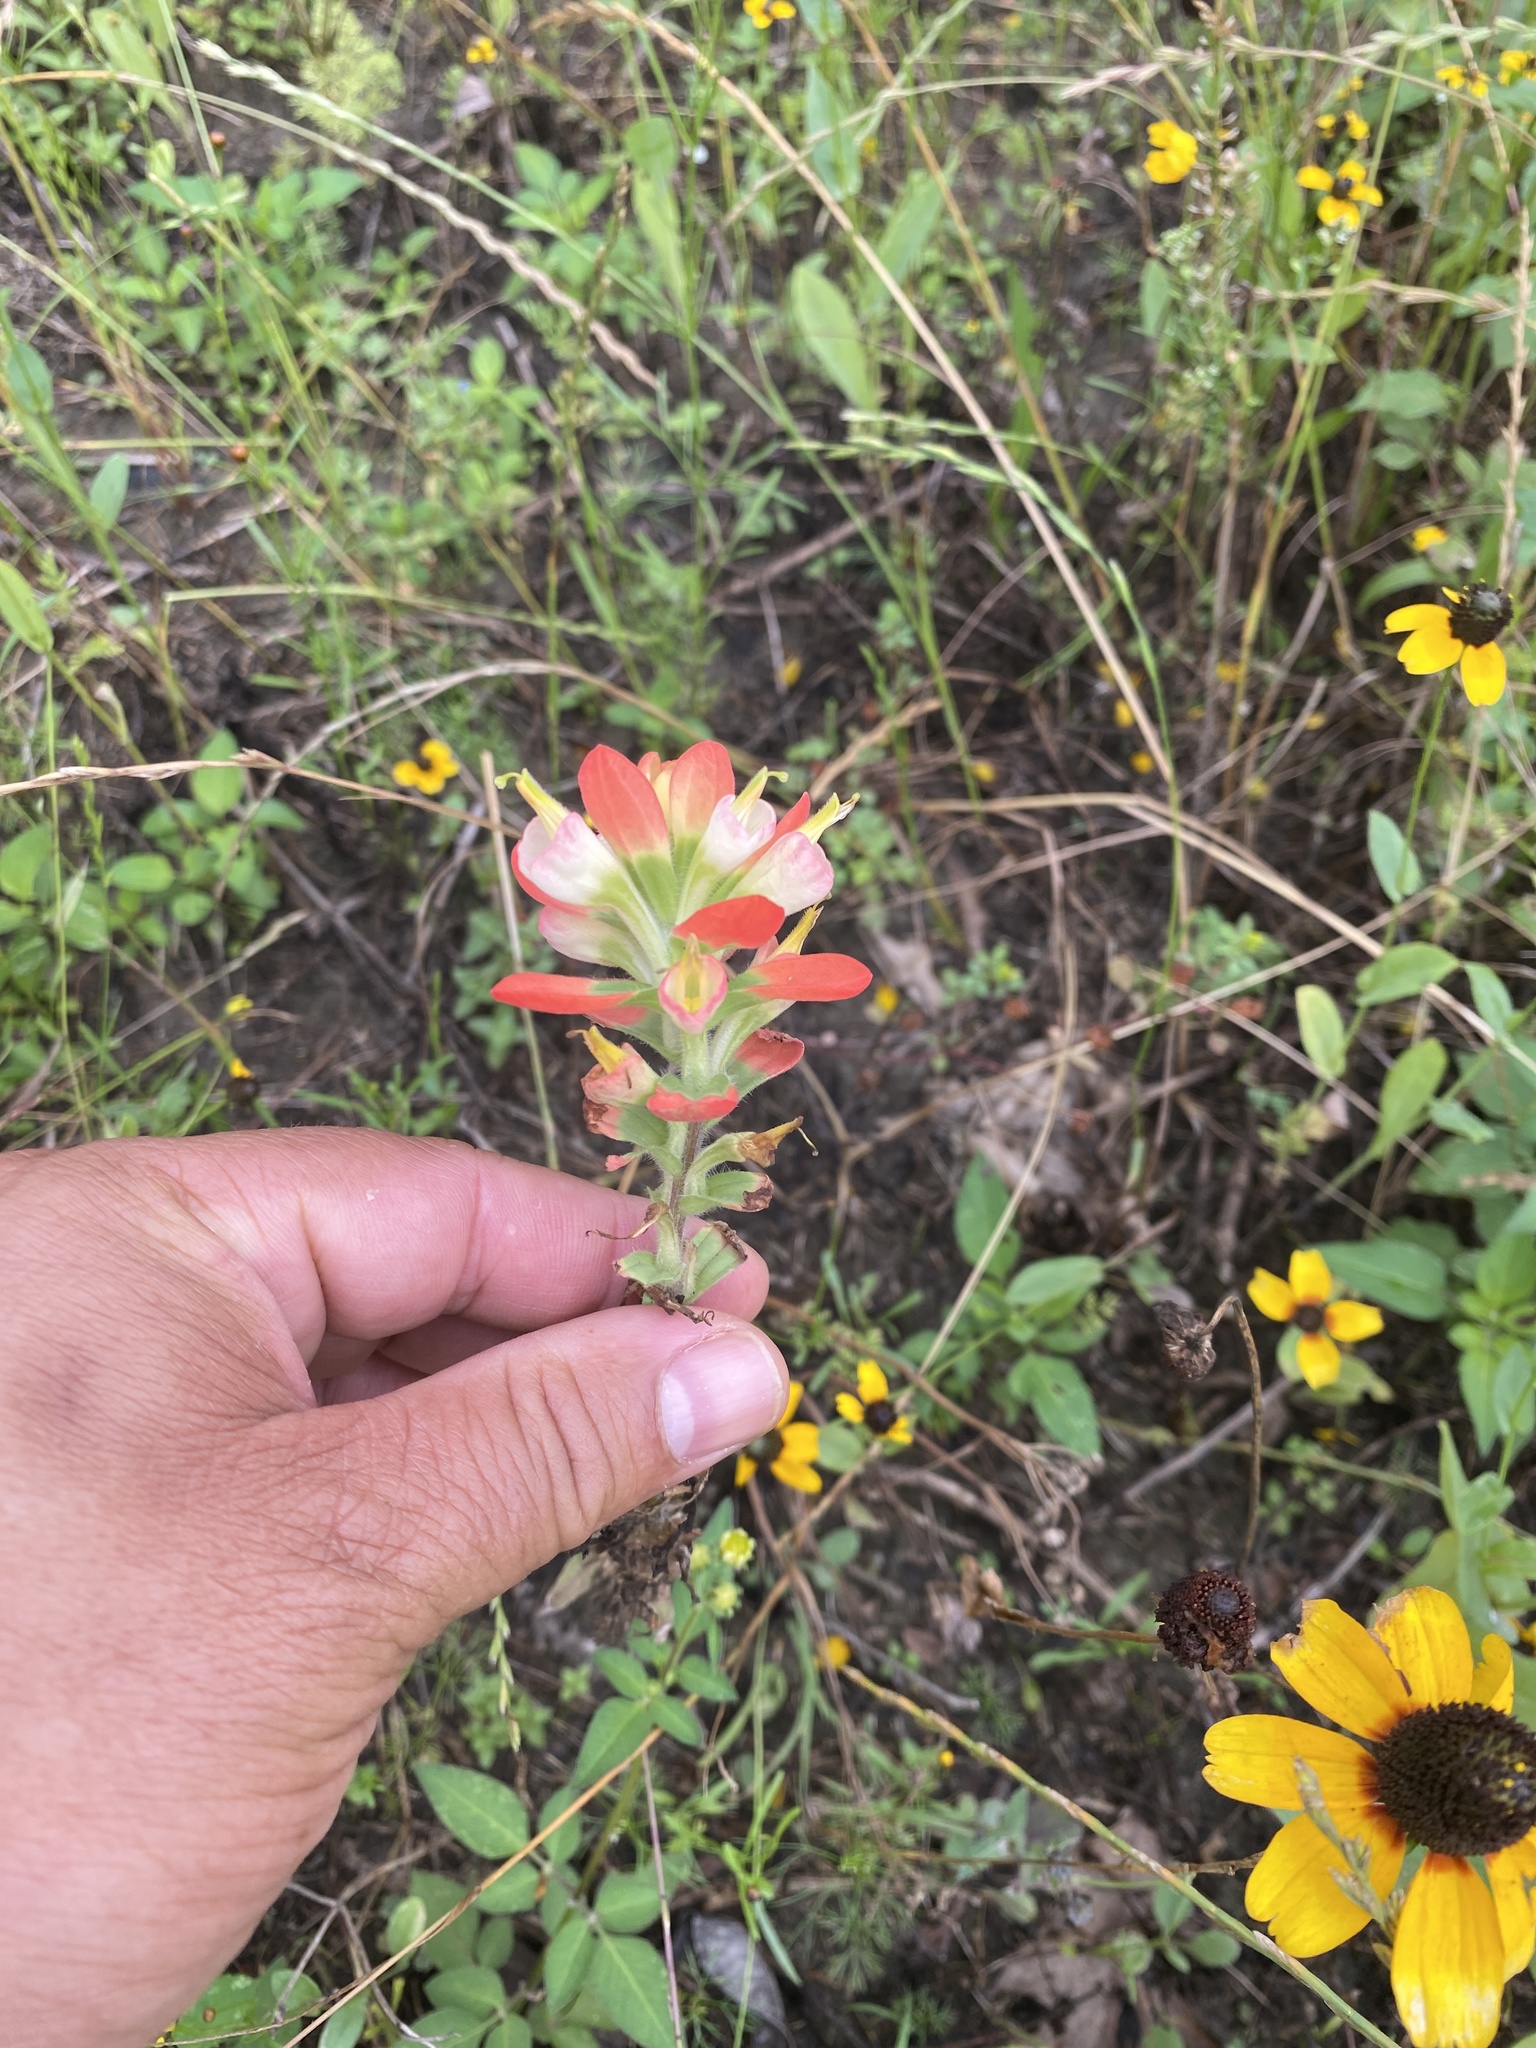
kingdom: Plantae
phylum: Tracheophyta
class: Magnoliopsida
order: Lamiales
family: Orobanchaceae
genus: Castilleja
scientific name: Castilleja indivisa
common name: Texas paintbrush
